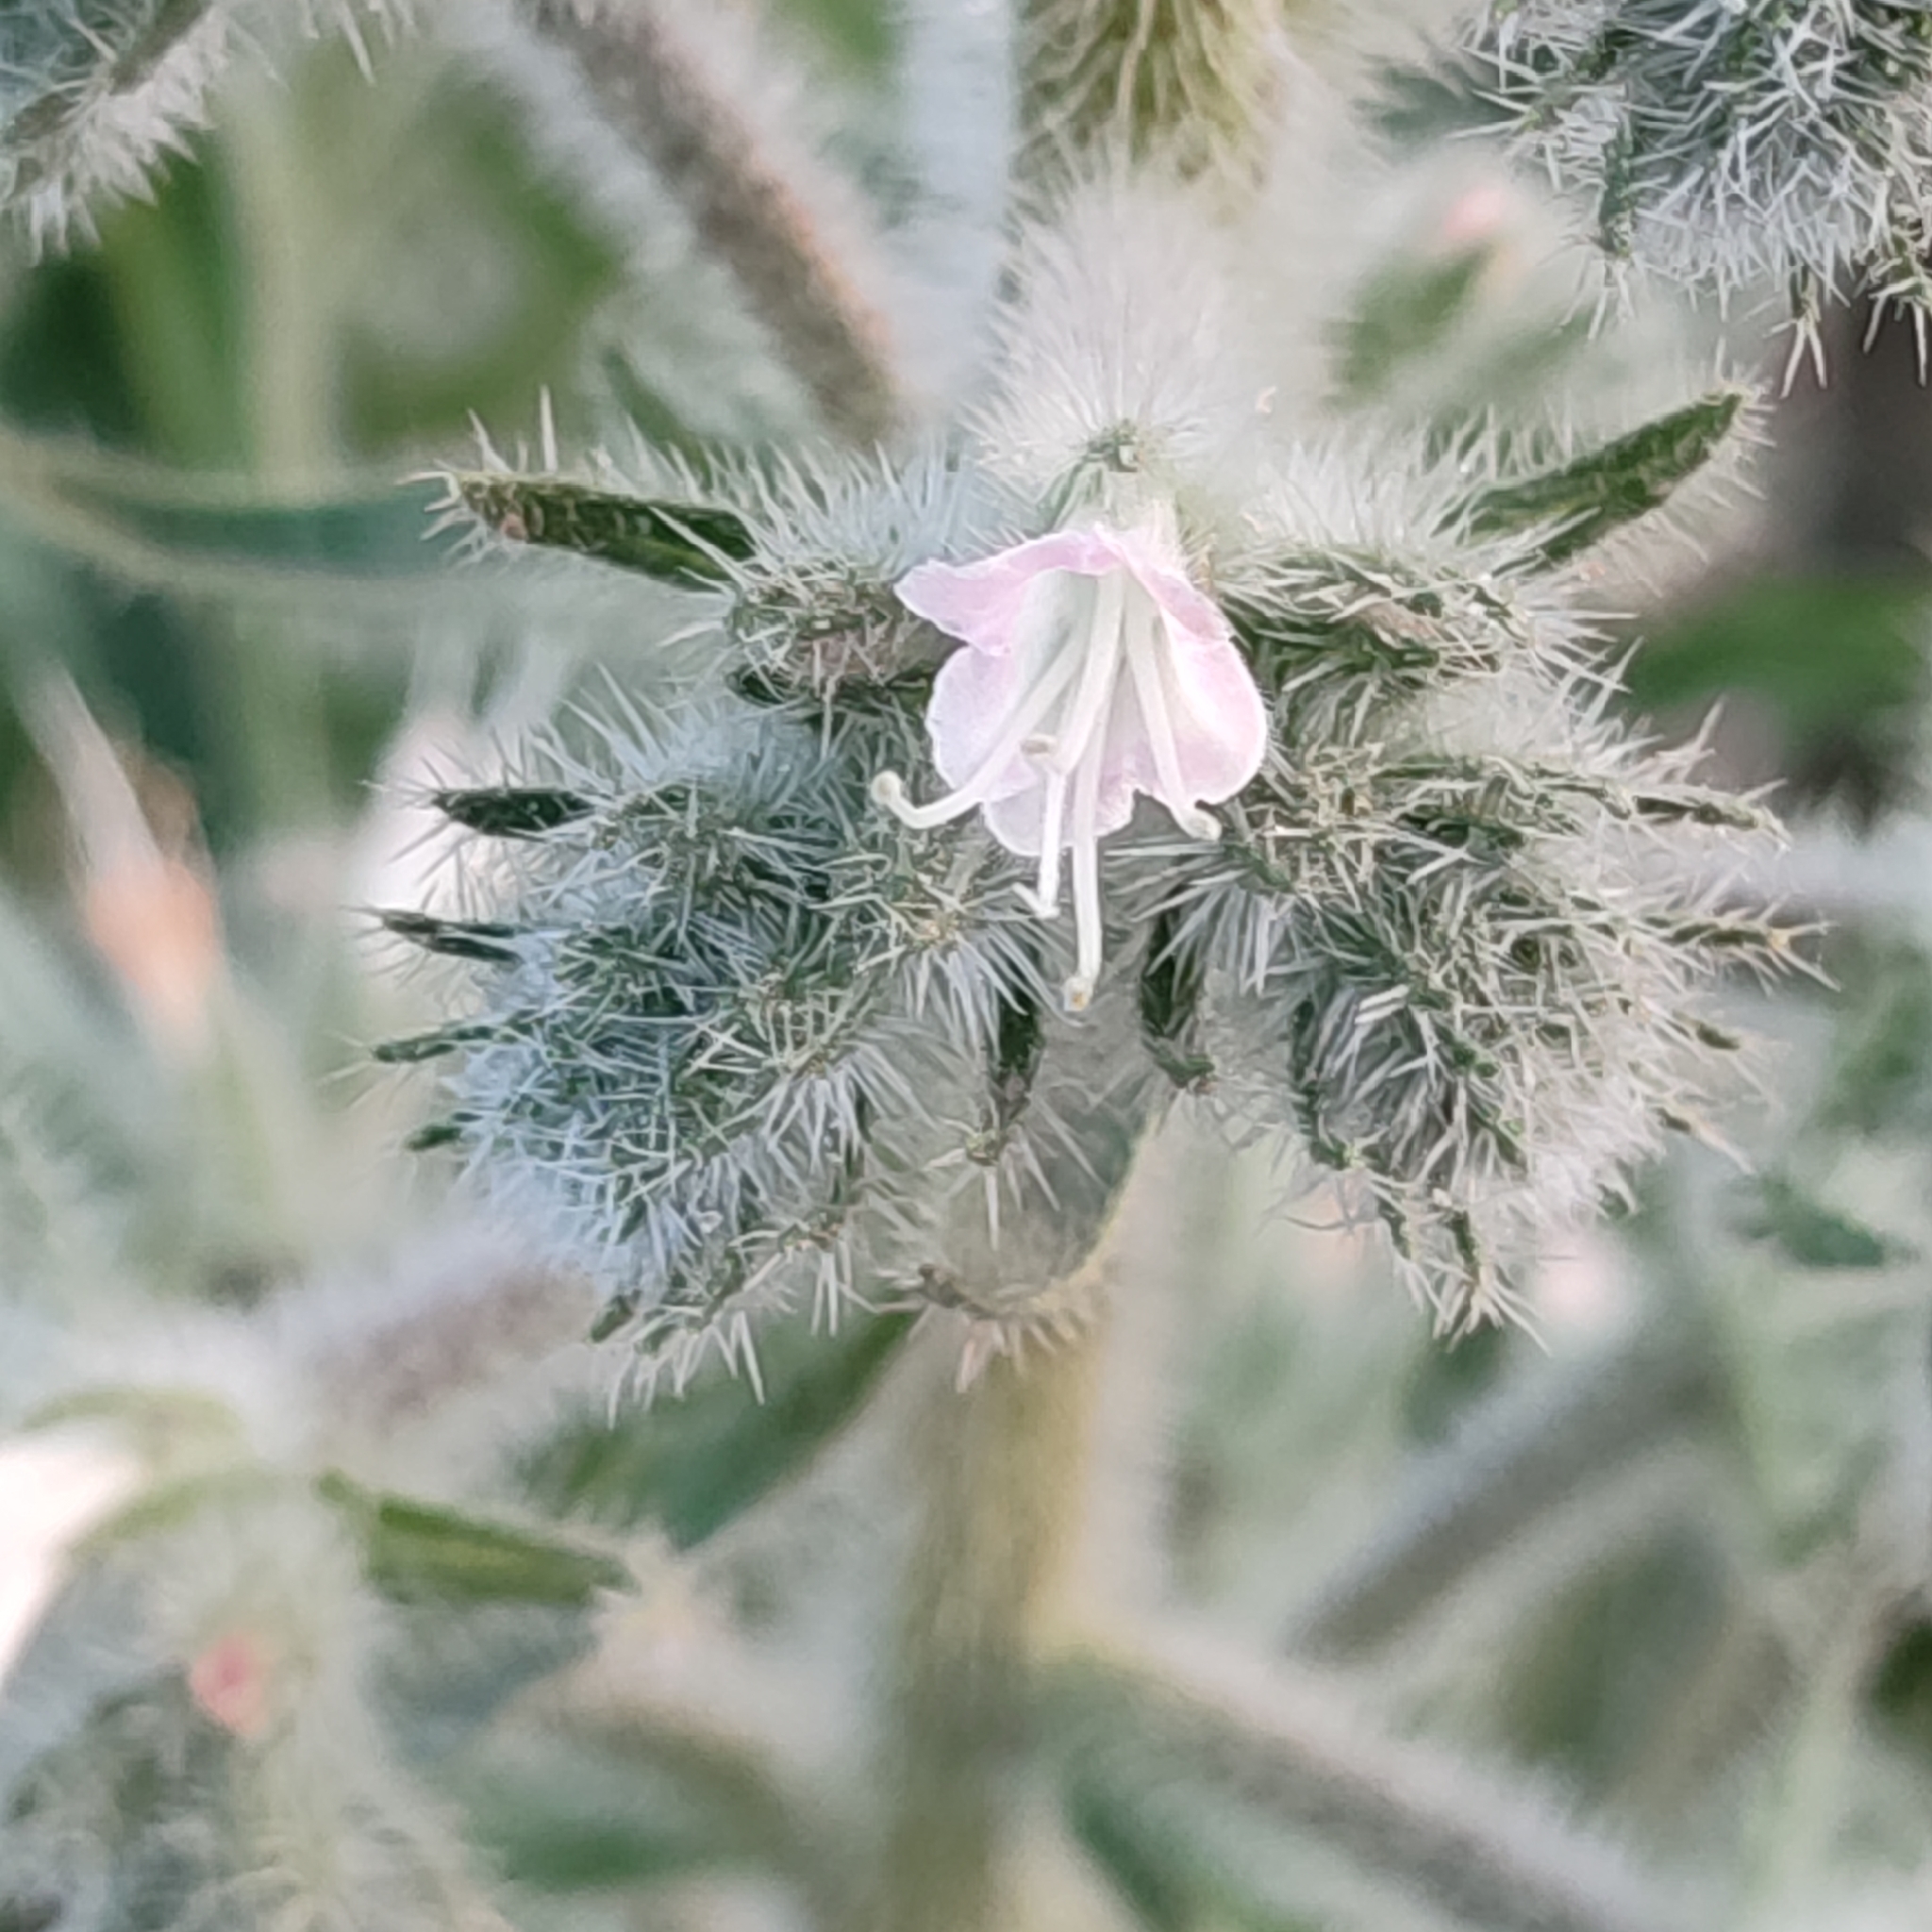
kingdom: Plantae
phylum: Tracheophyta
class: Magnoliopsida
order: Boraginales
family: Boraginaceae
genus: Echium
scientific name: Echium italicum
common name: Italian viper's bugloss
